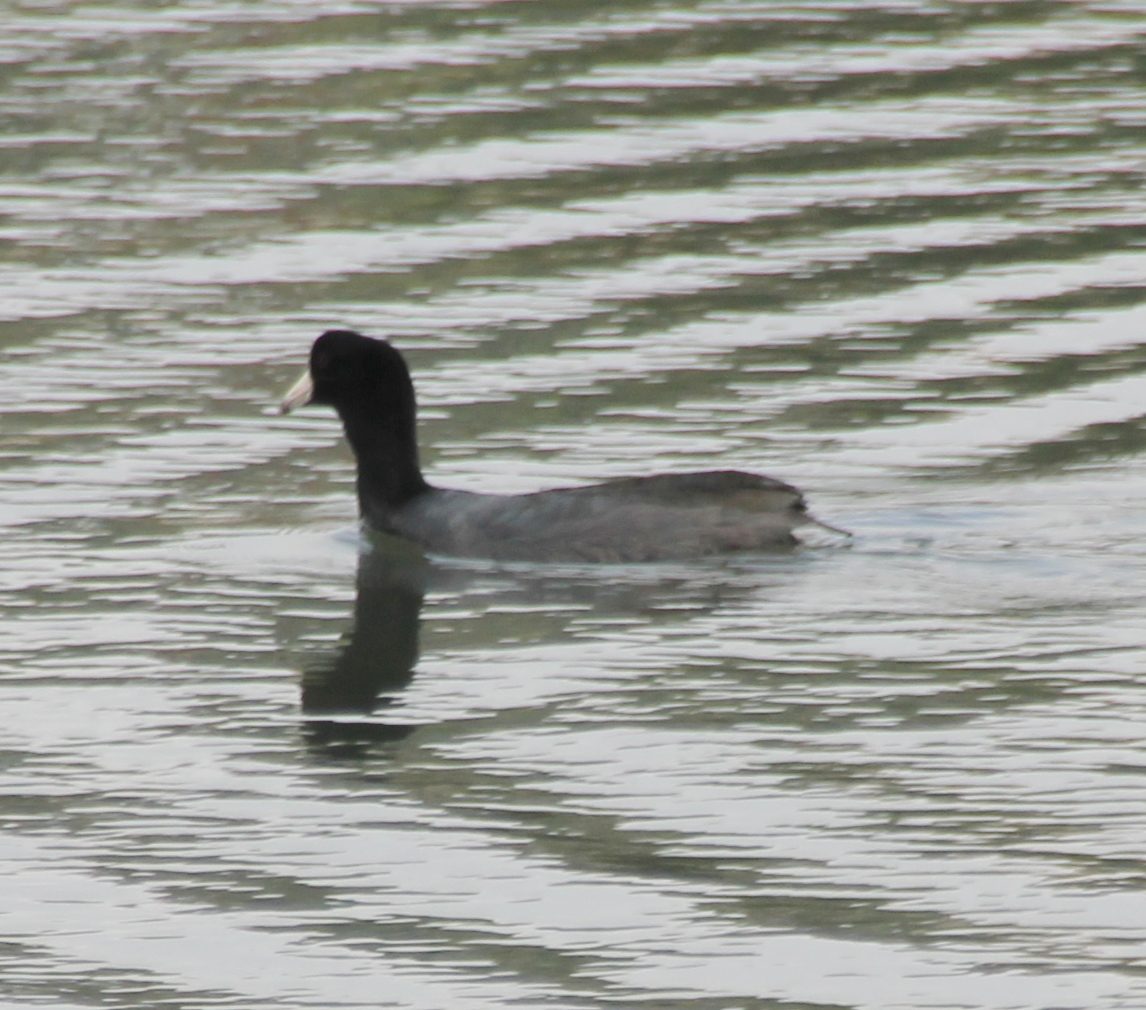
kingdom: Animalia
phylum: Chordata
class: Aves
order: Gruiformes
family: Rallidae
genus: Fulica
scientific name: Fulica americana
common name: American coot
